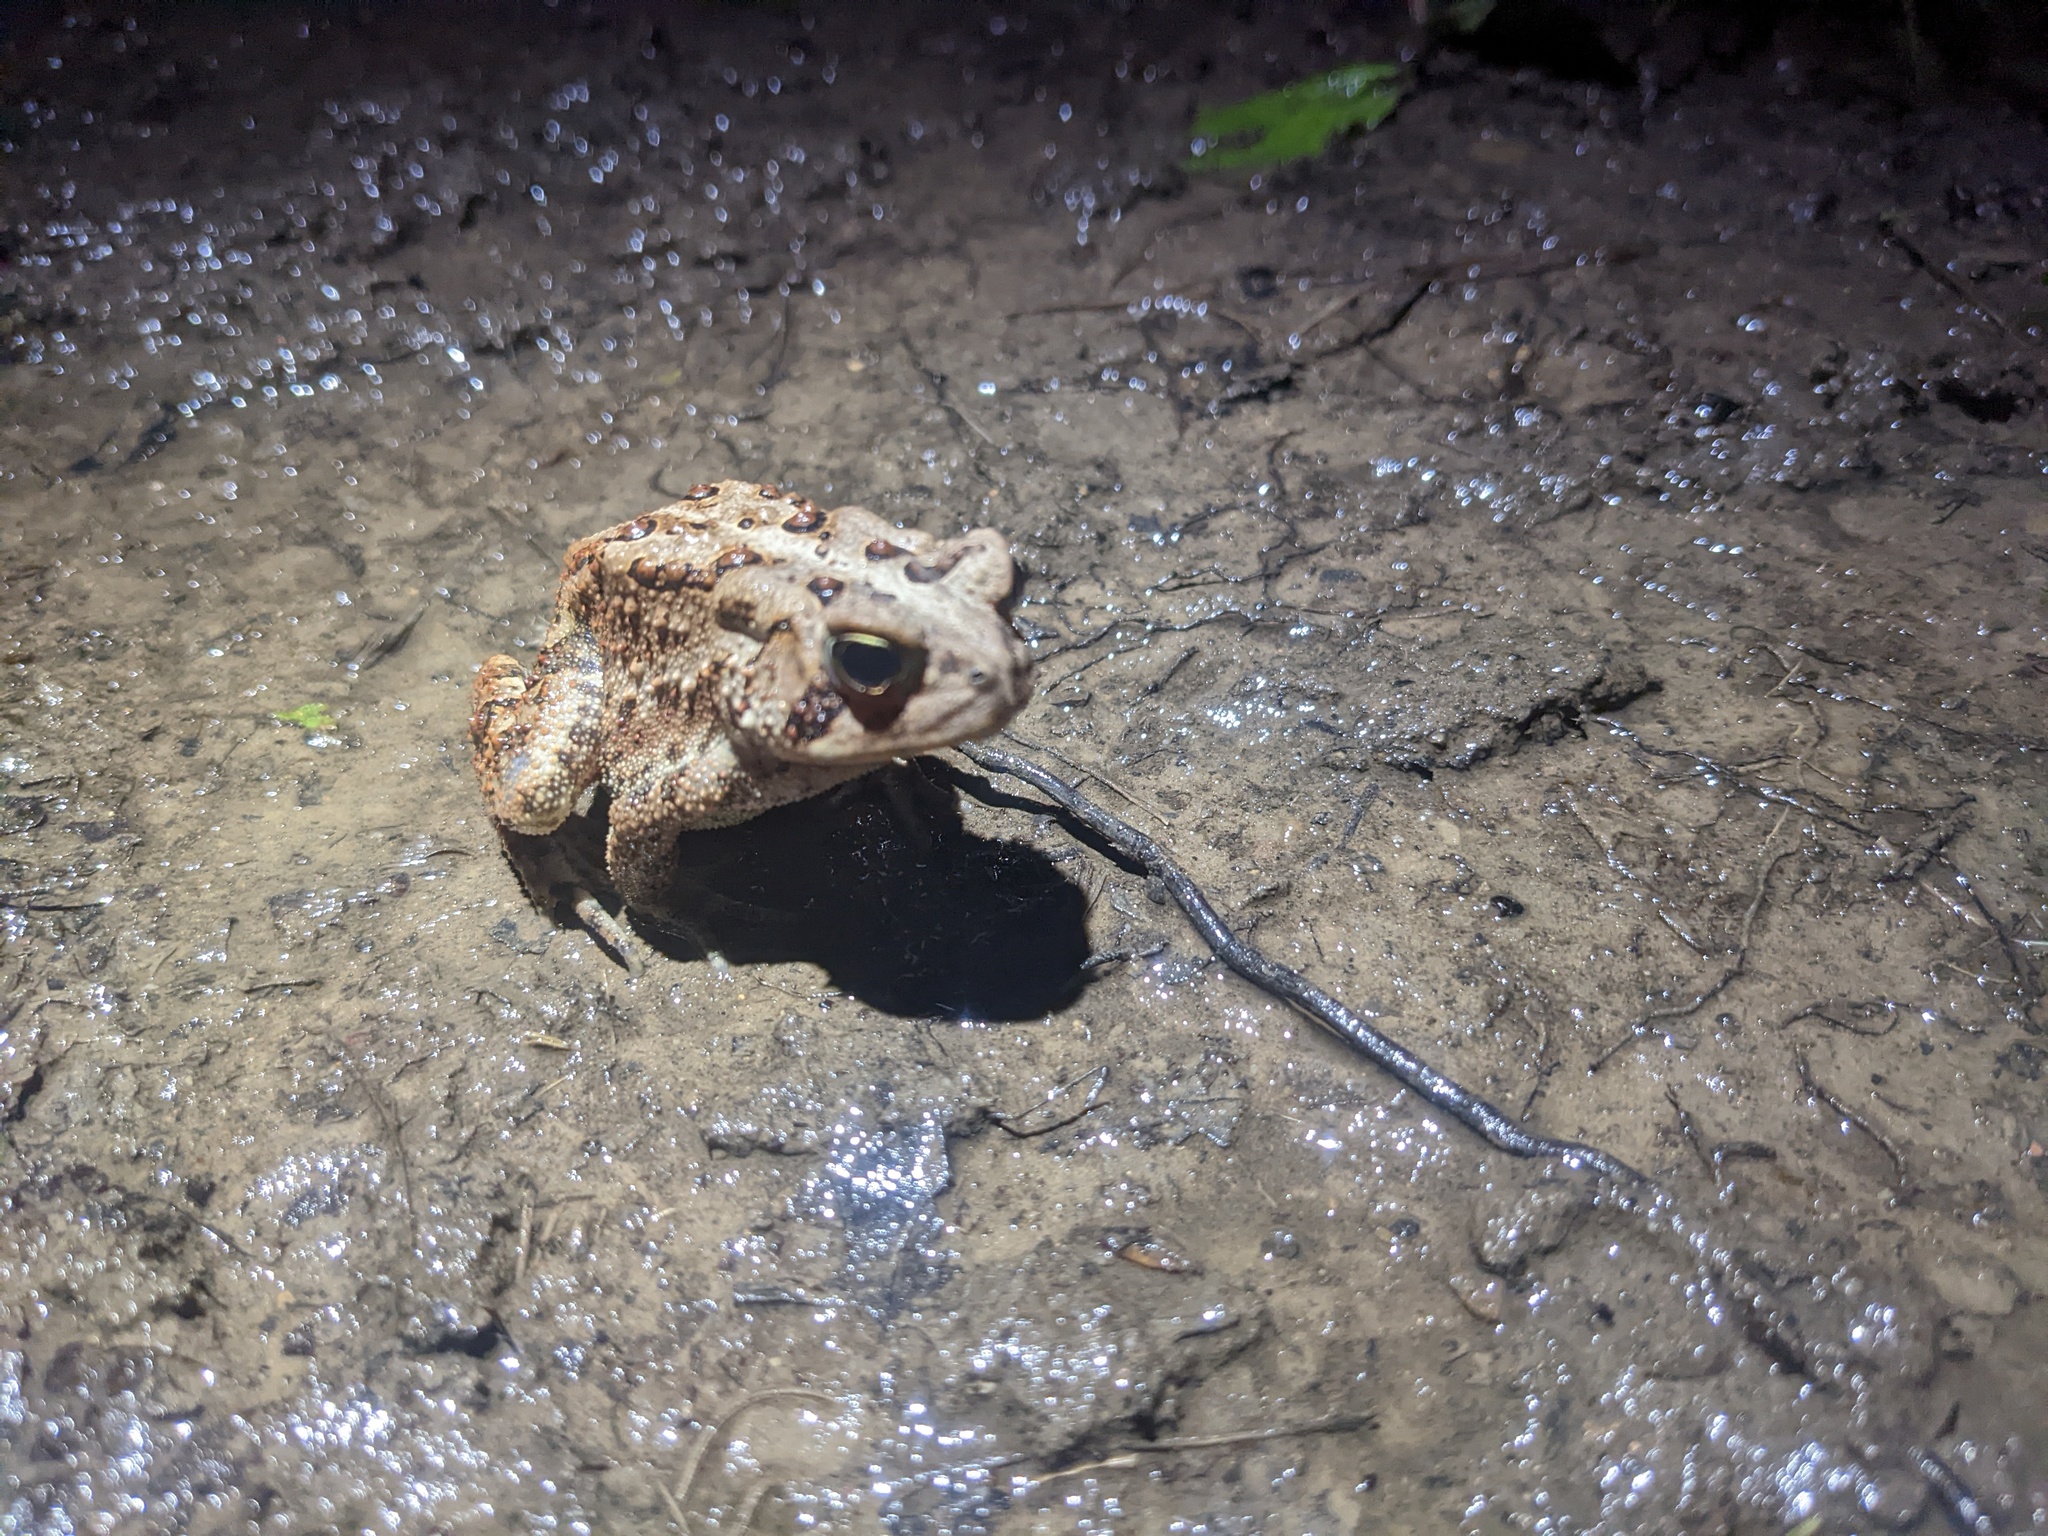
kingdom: Animalia
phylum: Chordata
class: Amphibia
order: Anura
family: Bufonidae
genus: Anaxyrus
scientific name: Anaxyrus americanus
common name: American toad
